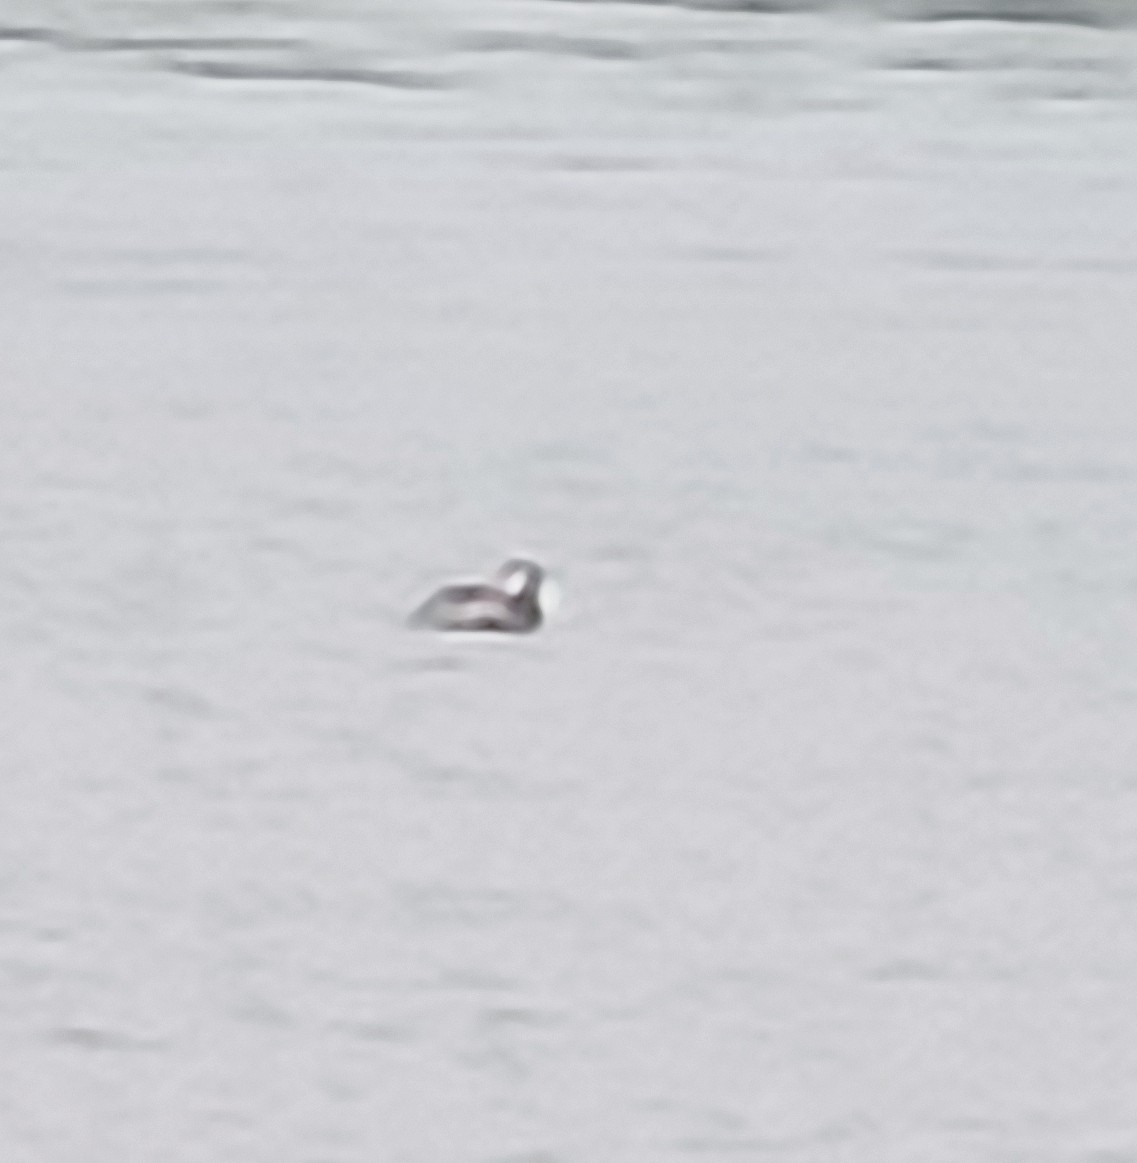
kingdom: Animalia
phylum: Chordata
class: Aves
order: Podicipediformes
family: Podicipedidae
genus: Podiceps
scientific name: Podiceps cristatus
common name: Great crested grebe
